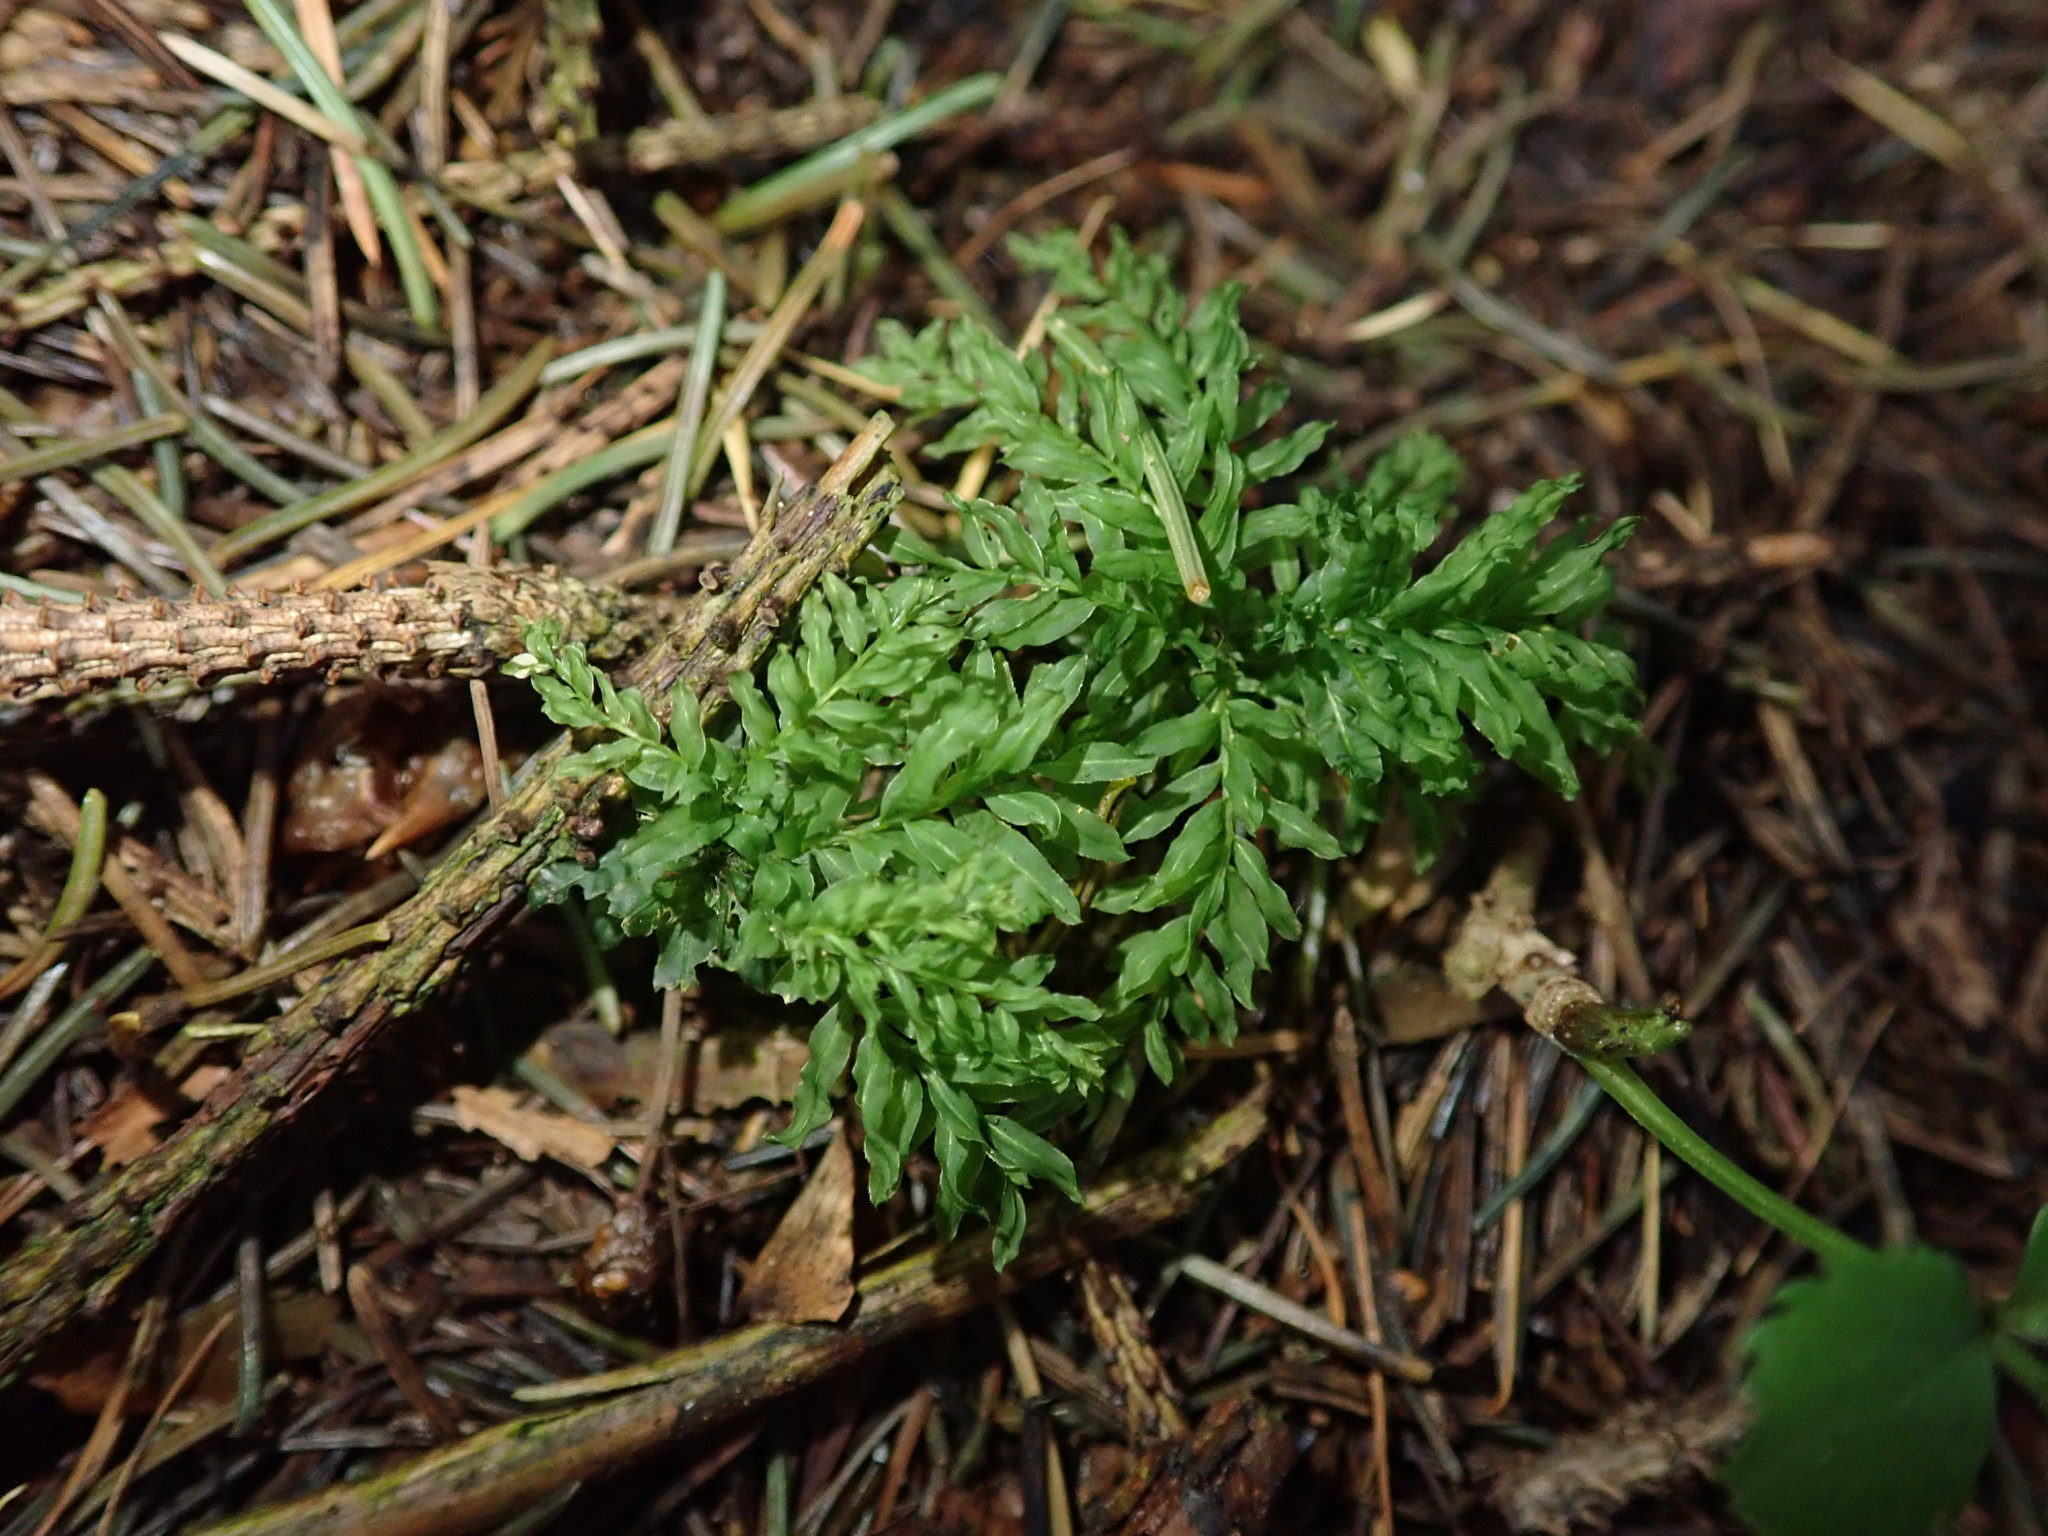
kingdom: Plantae
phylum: Bryophyta
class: Bryopsida
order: Bryales
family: Mniaceae
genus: Plagiomnium
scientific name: Plagiomnium undulatum
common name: Hart's-tongue thyme-moss
